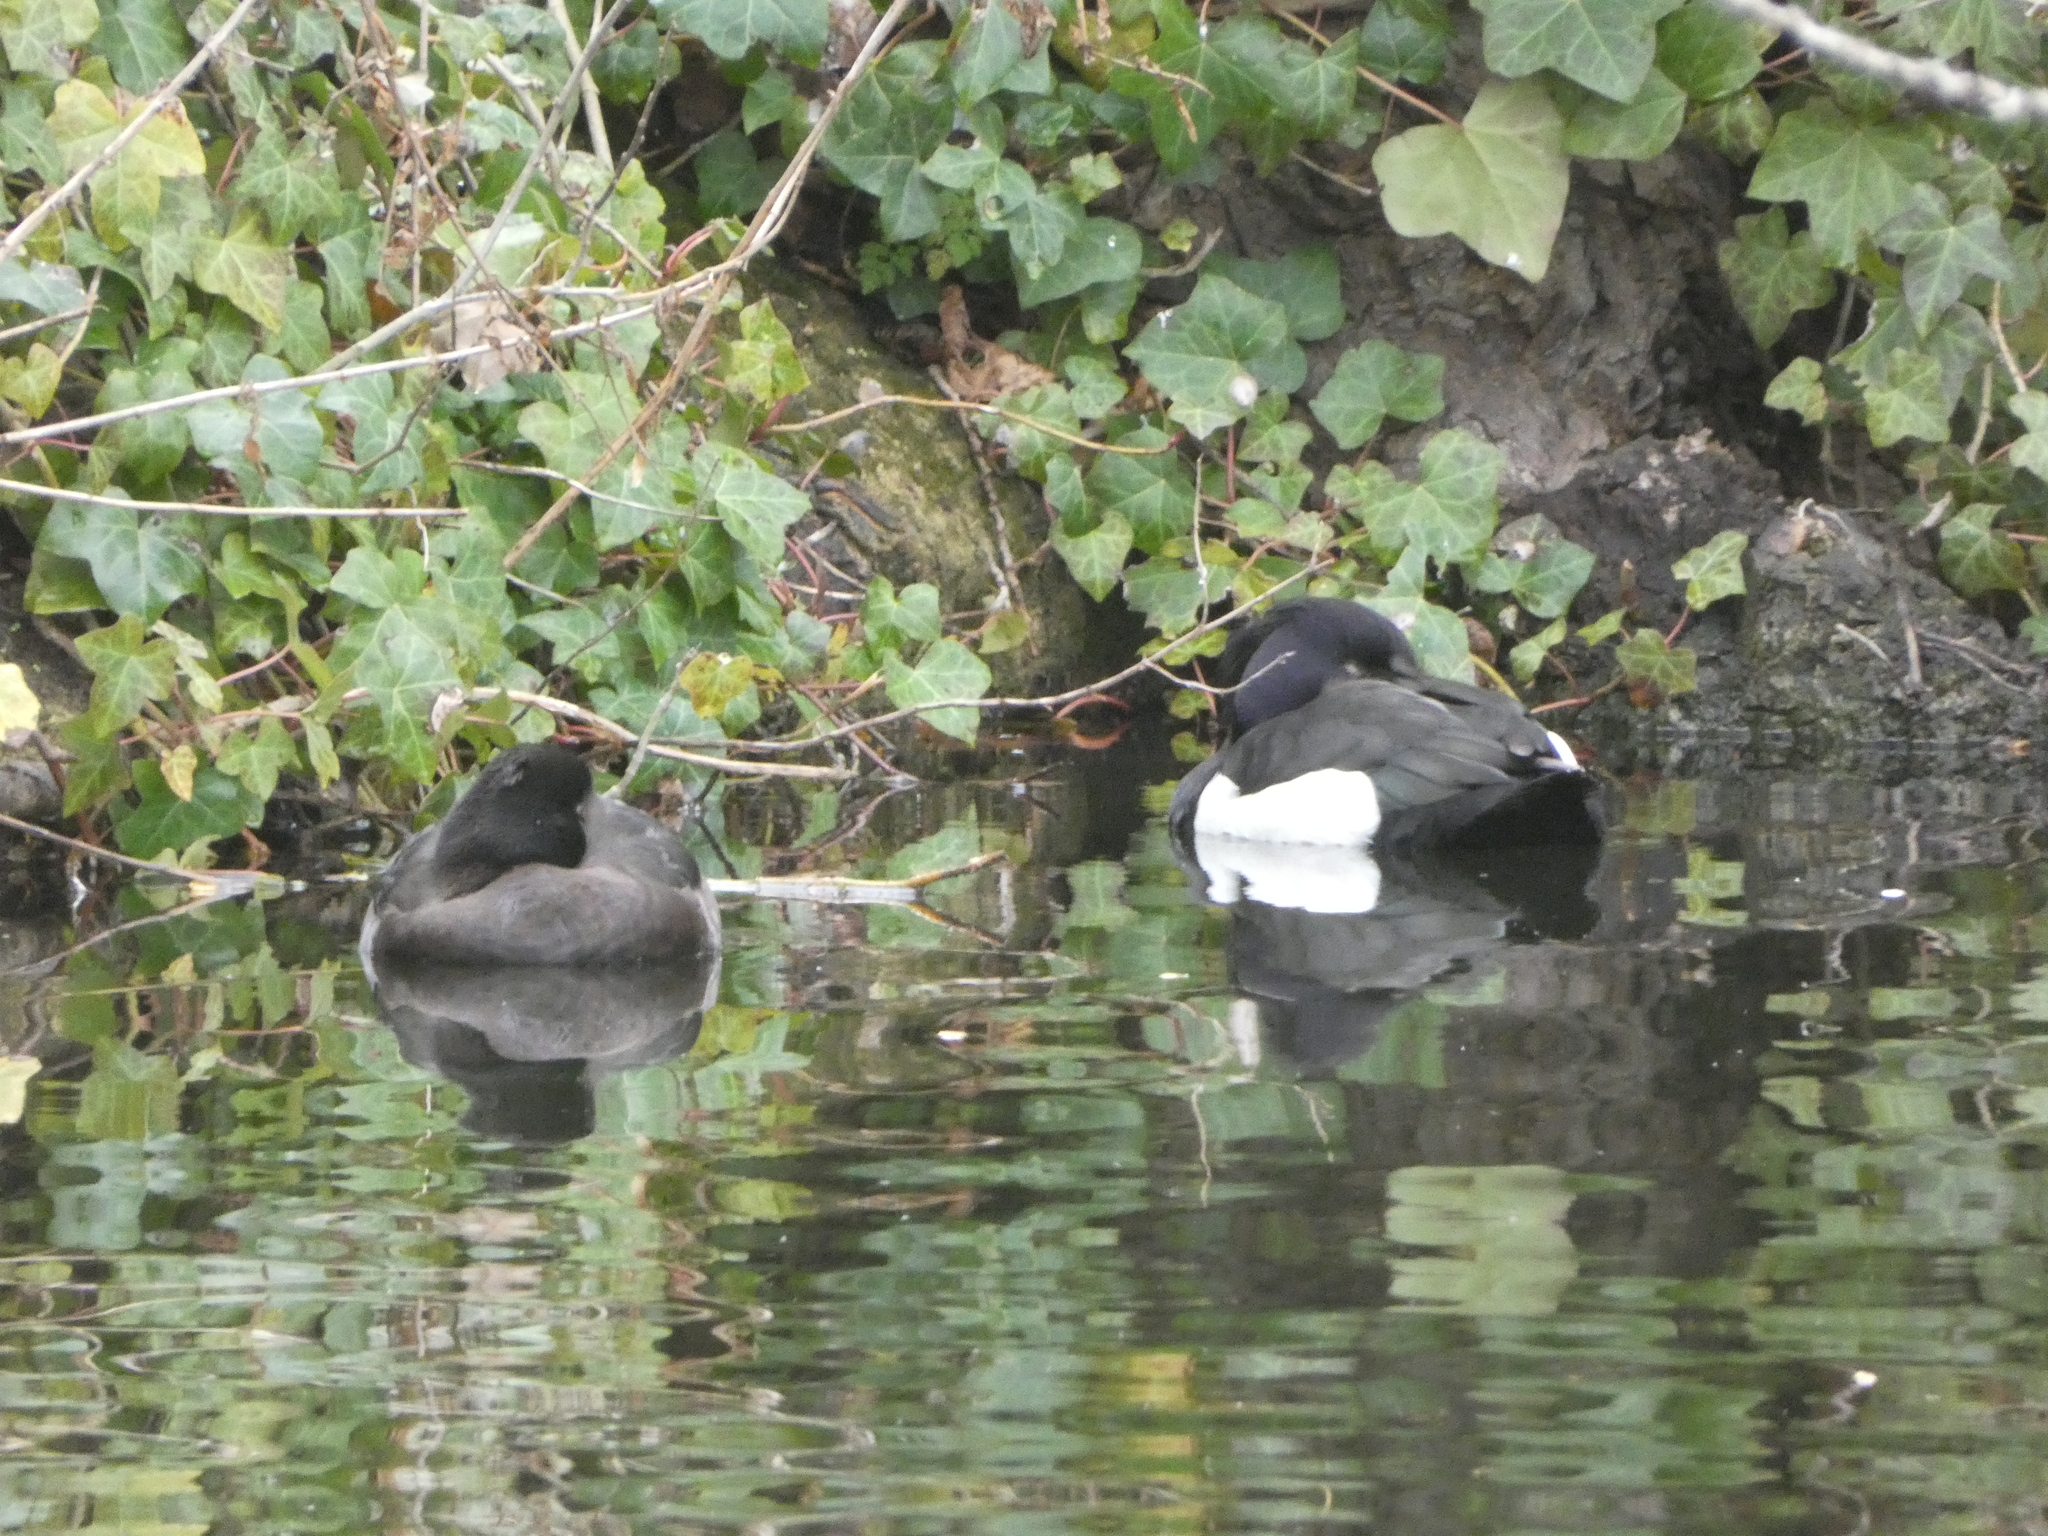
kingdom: Animalia
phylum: Chordata
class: Aves
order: Anseriformes
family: Anatidae
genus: Aythya
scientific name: Aythya fuligula
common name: Tufted duck
